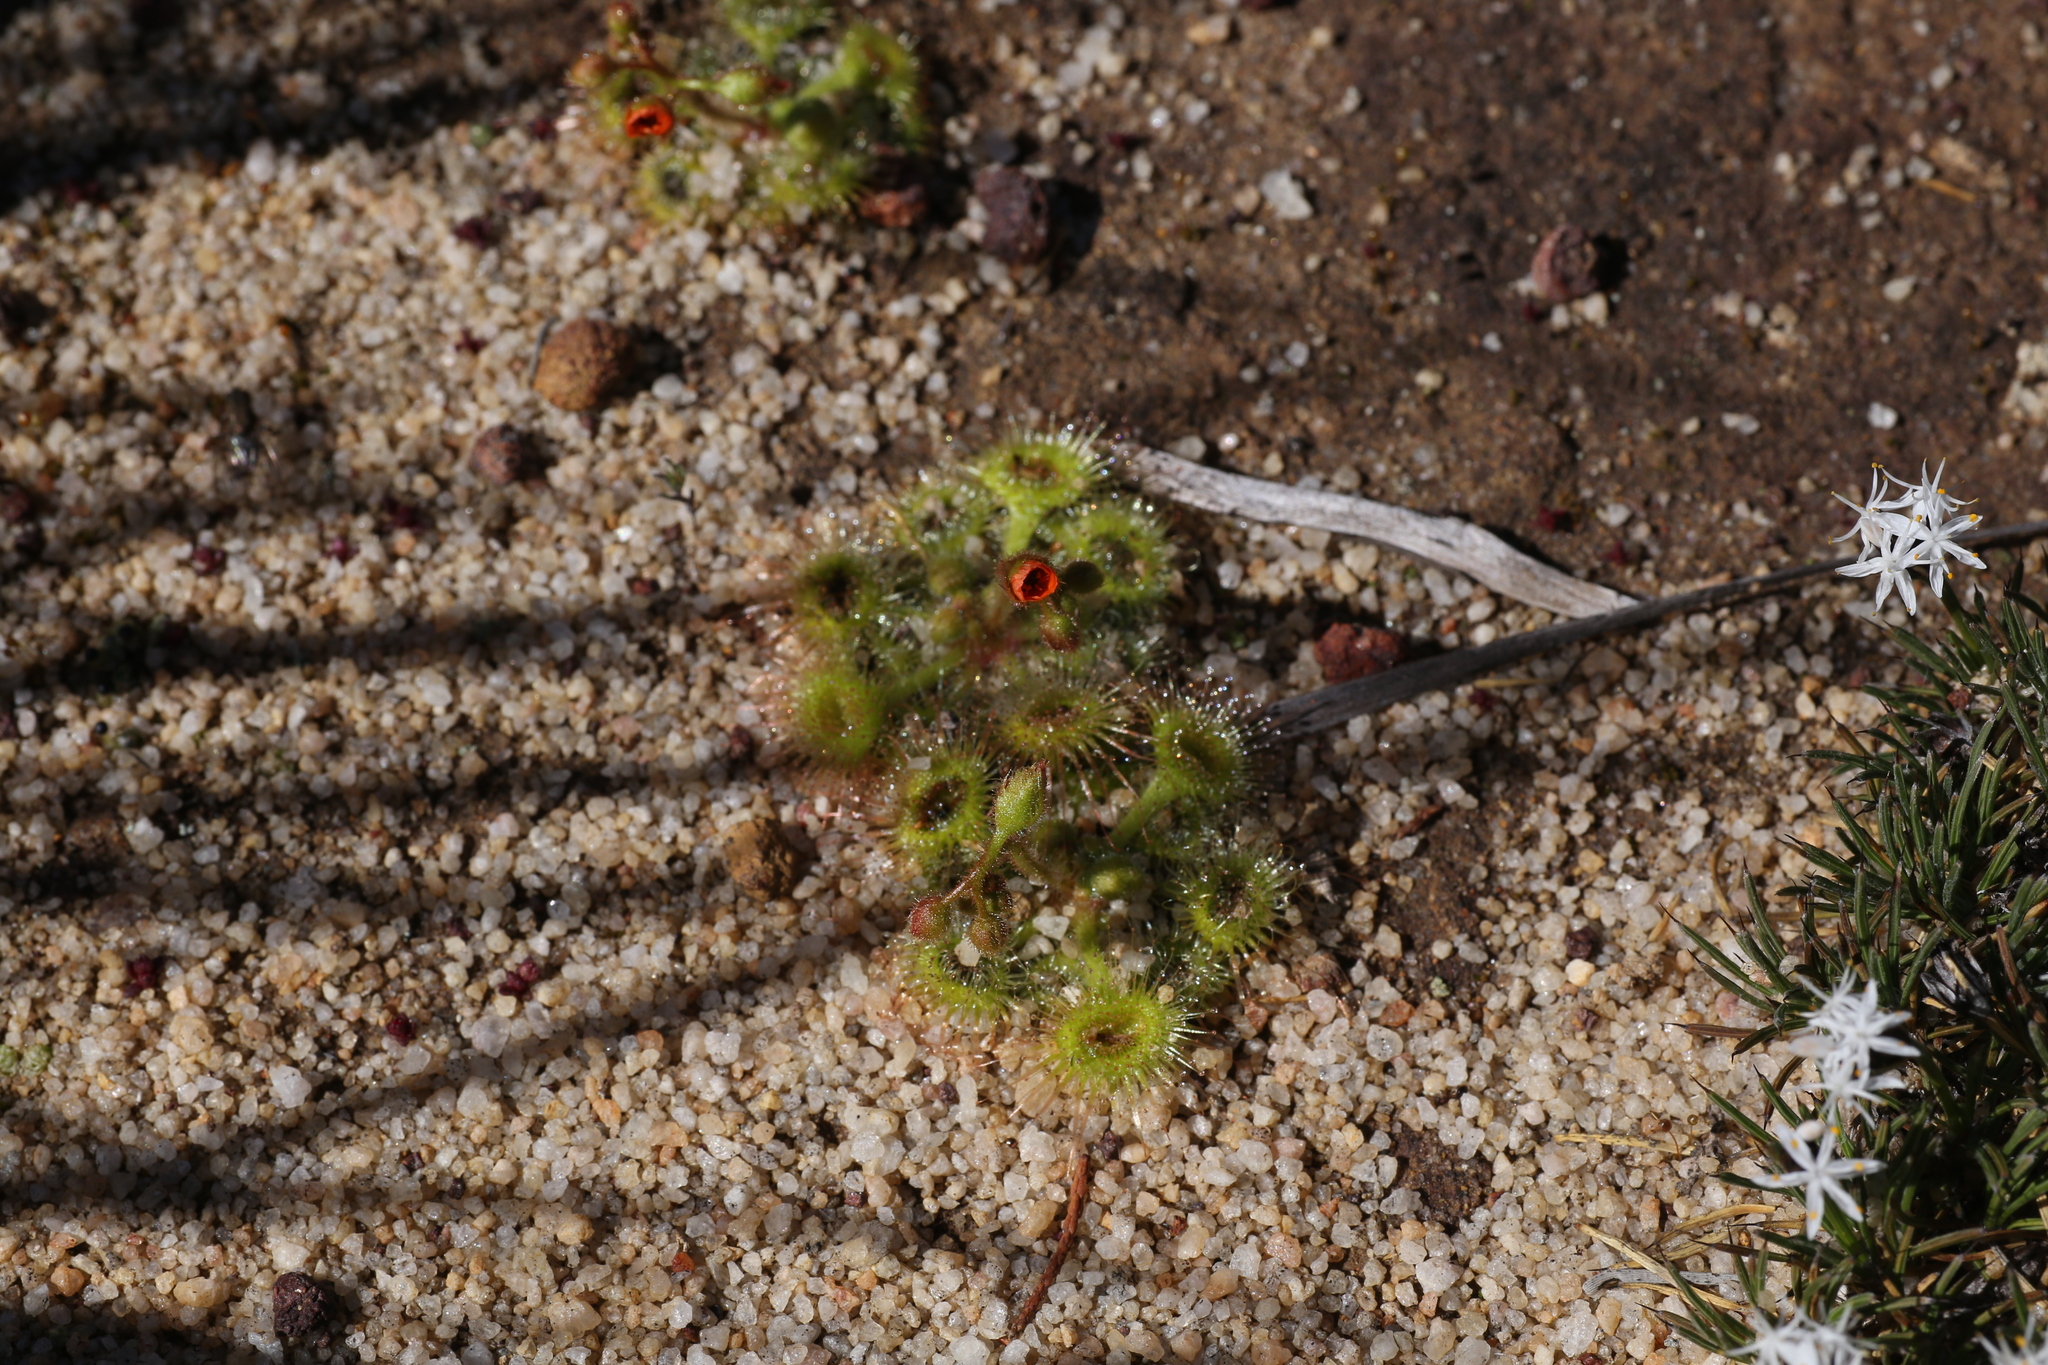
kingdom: Plantae
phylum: Tracheophyta
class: Magnoliopsida
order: Caryophyllales
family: Droseraceae
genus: Drosera
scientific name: Drosera glanduligera
